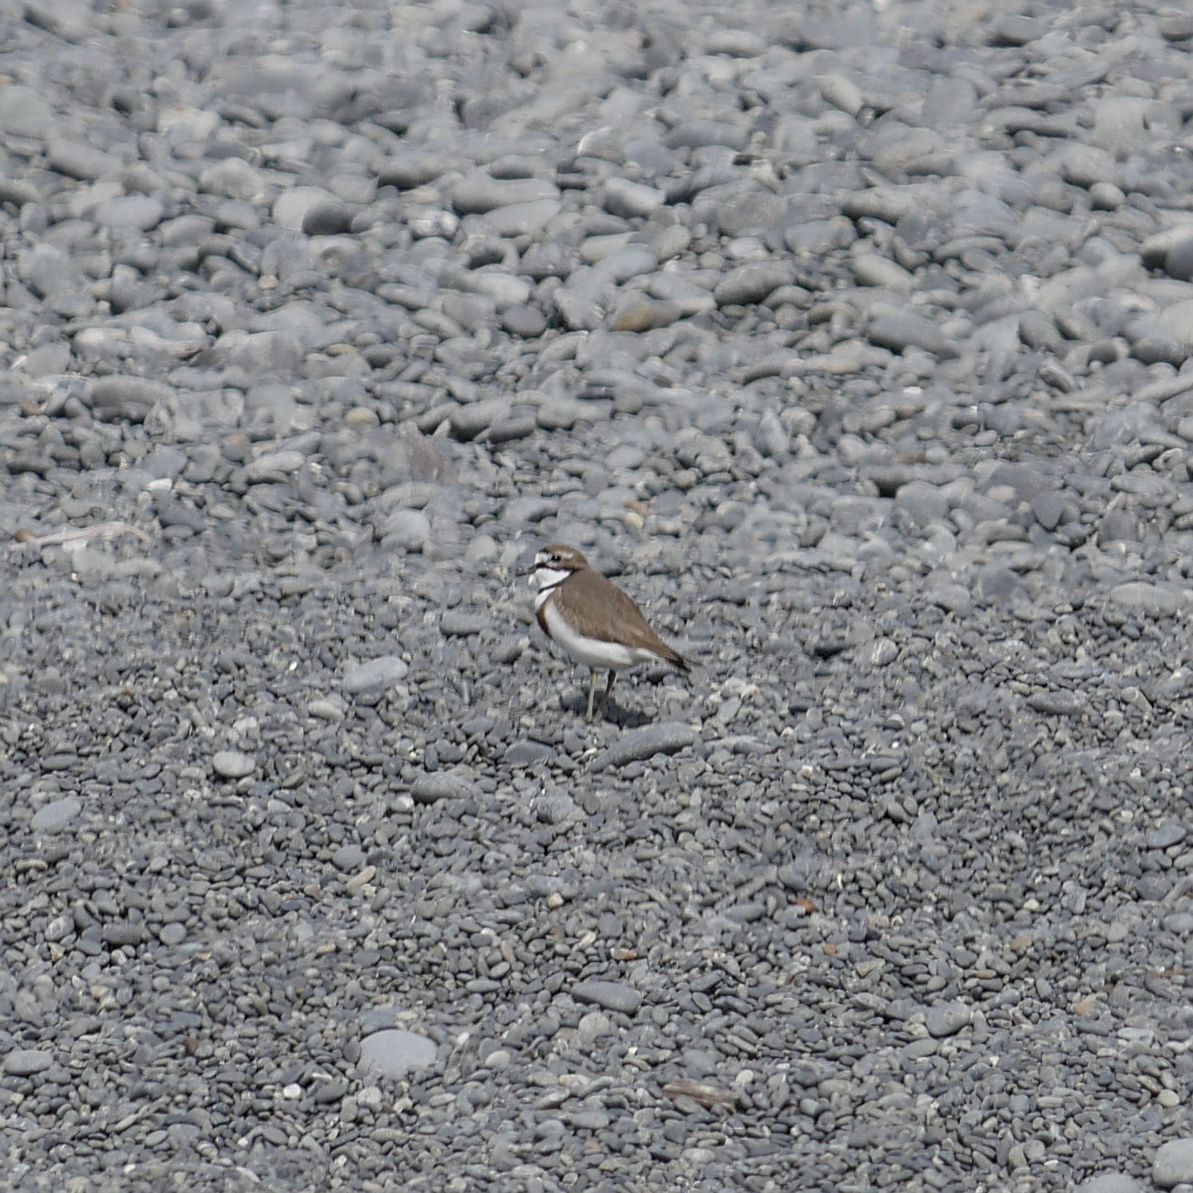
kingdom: Animalia
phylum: Chordata
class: Aves
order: Charadriiformes
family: Charadriidae
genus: Anarhynchus
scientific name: Anarhynchus
